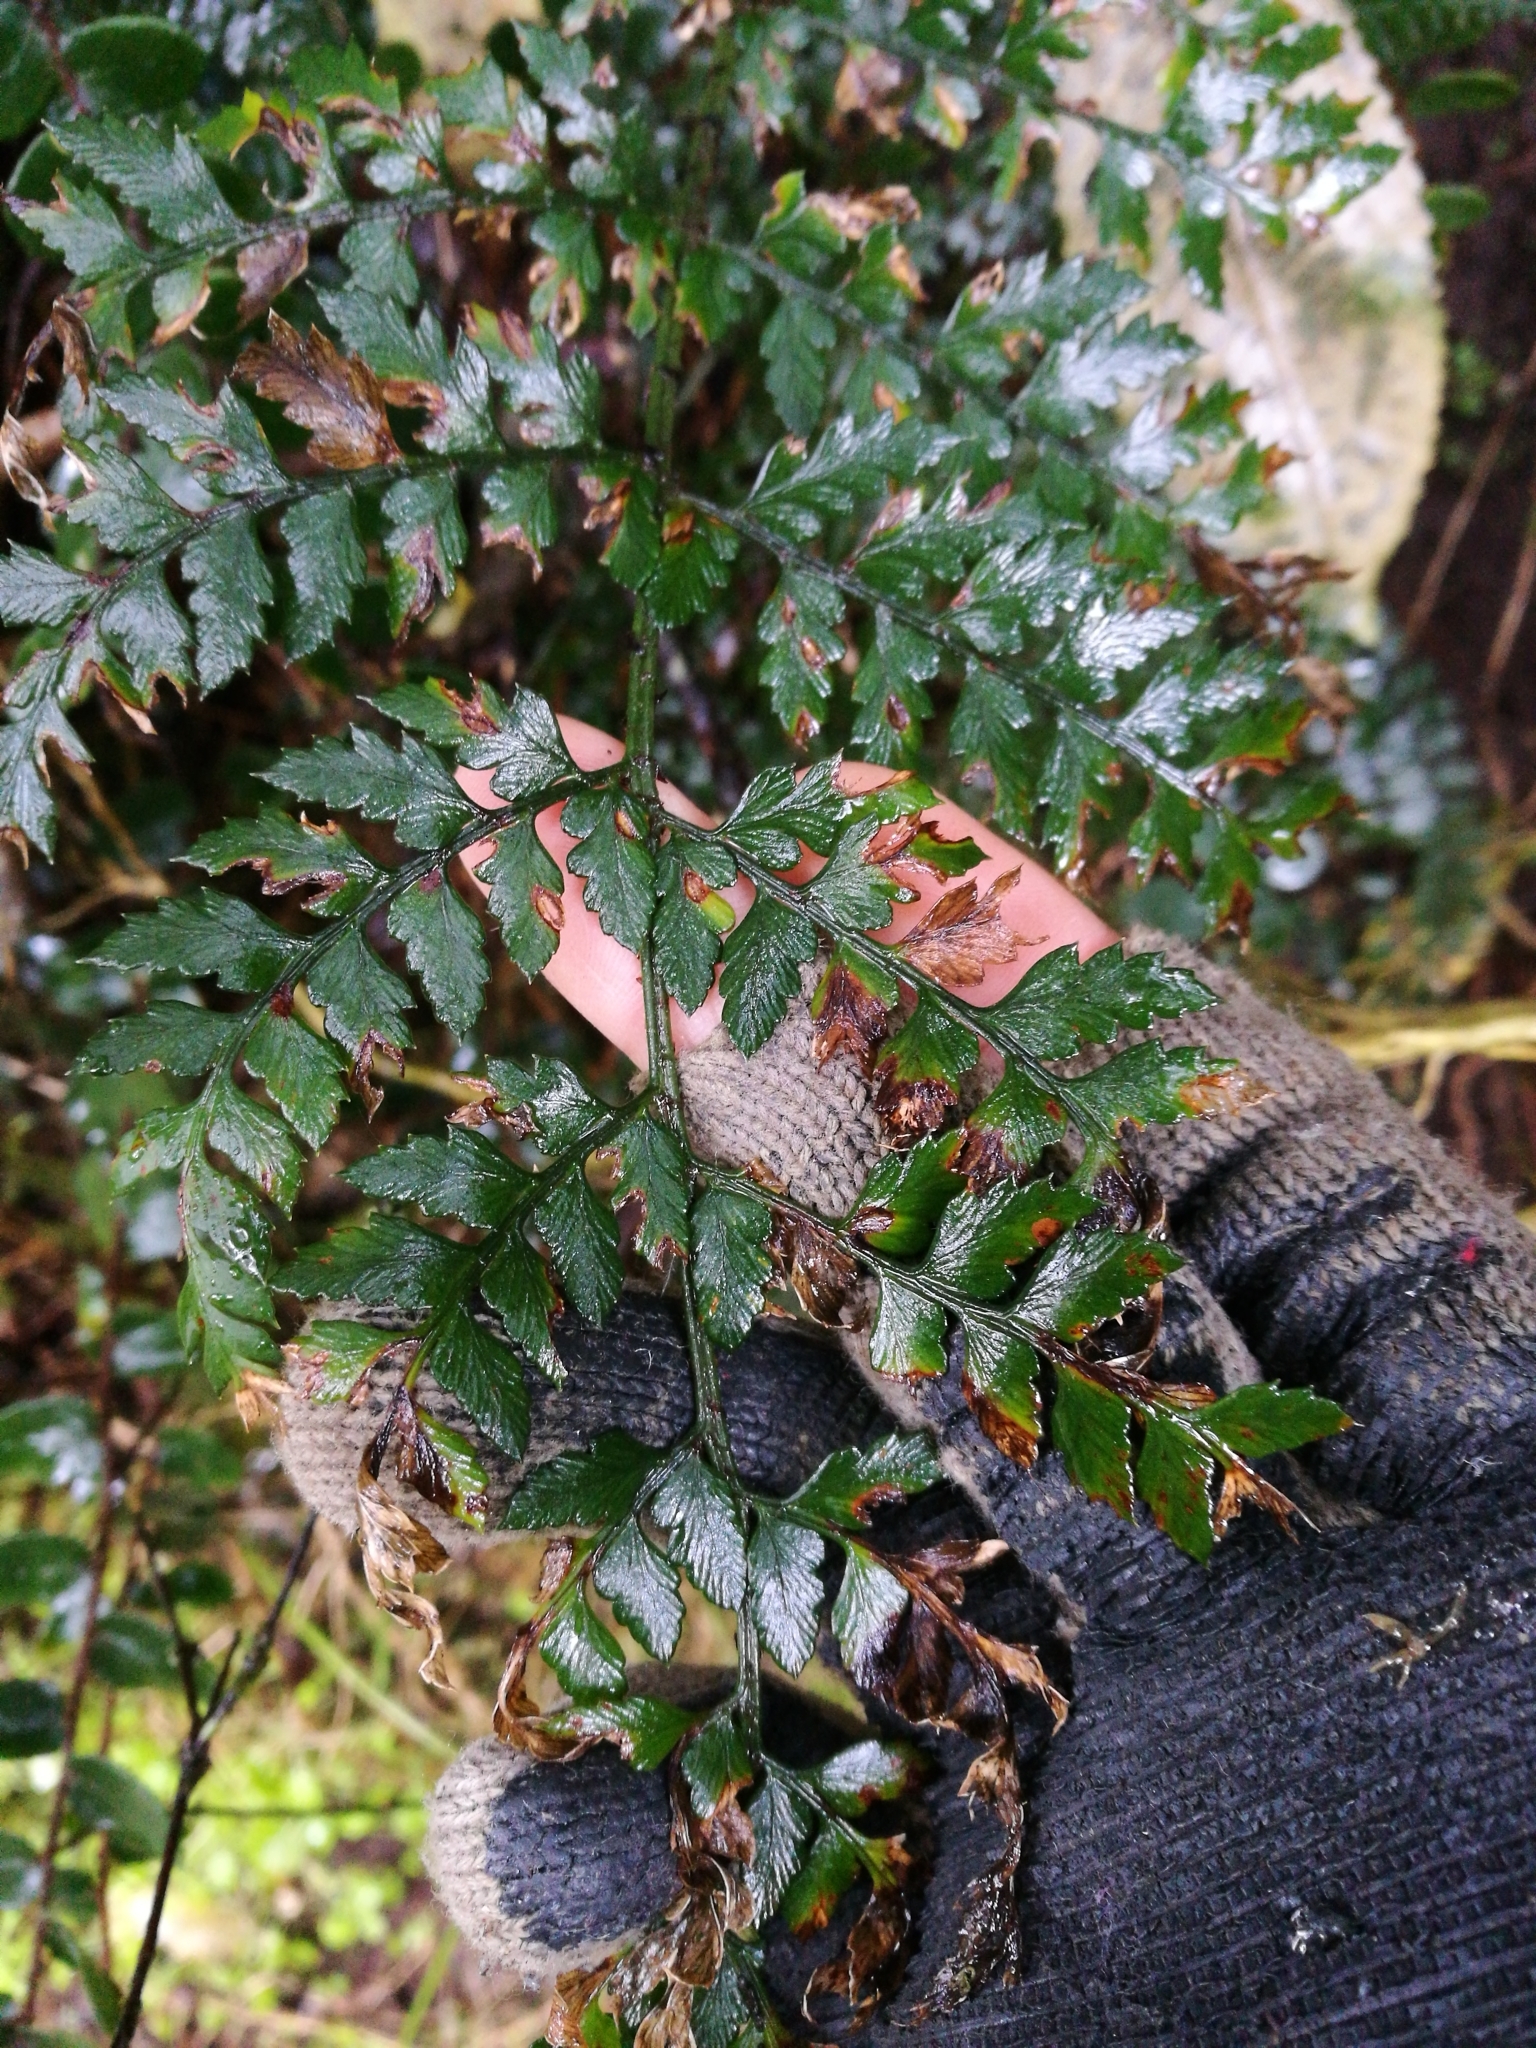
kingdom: Plantae
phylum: Tracheophyta
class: Polypodiopsida
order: Polypodiales
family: Dryopteridaceae
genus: Polystichum
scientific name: Polystichum oculatum
